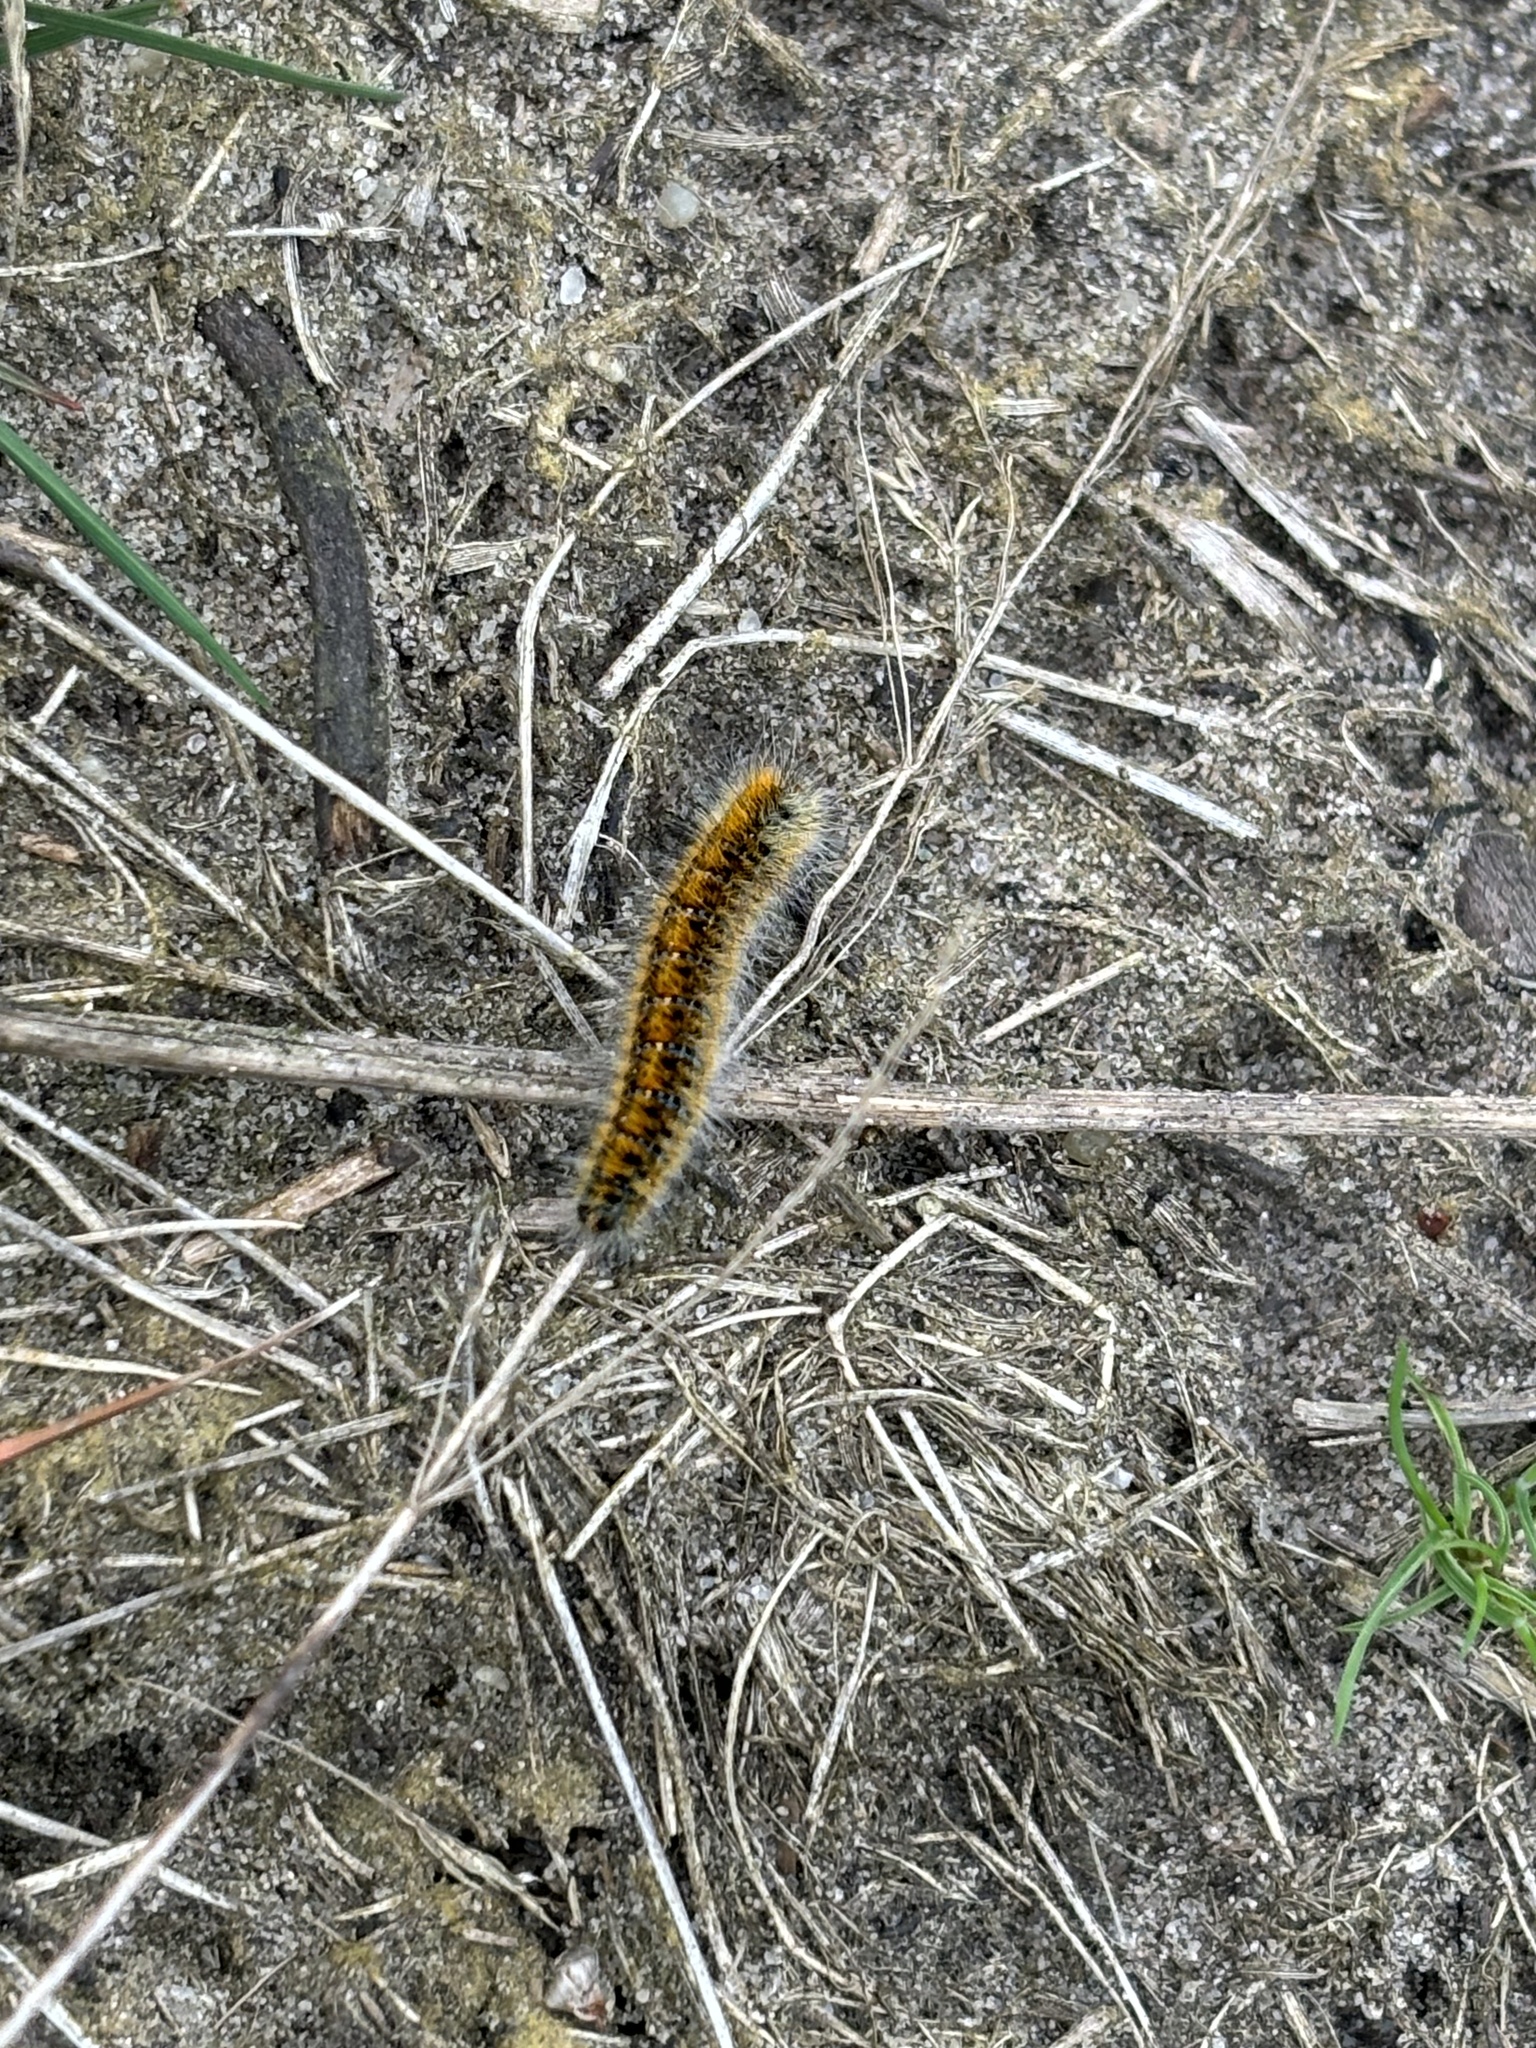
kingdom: Animalia
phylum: Arthropoda
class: Insecta
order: Lepidoptera
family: Lasiocampidae
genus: Lasiocampa
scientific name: Lasiocampa trifolii
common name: Grass eggar
